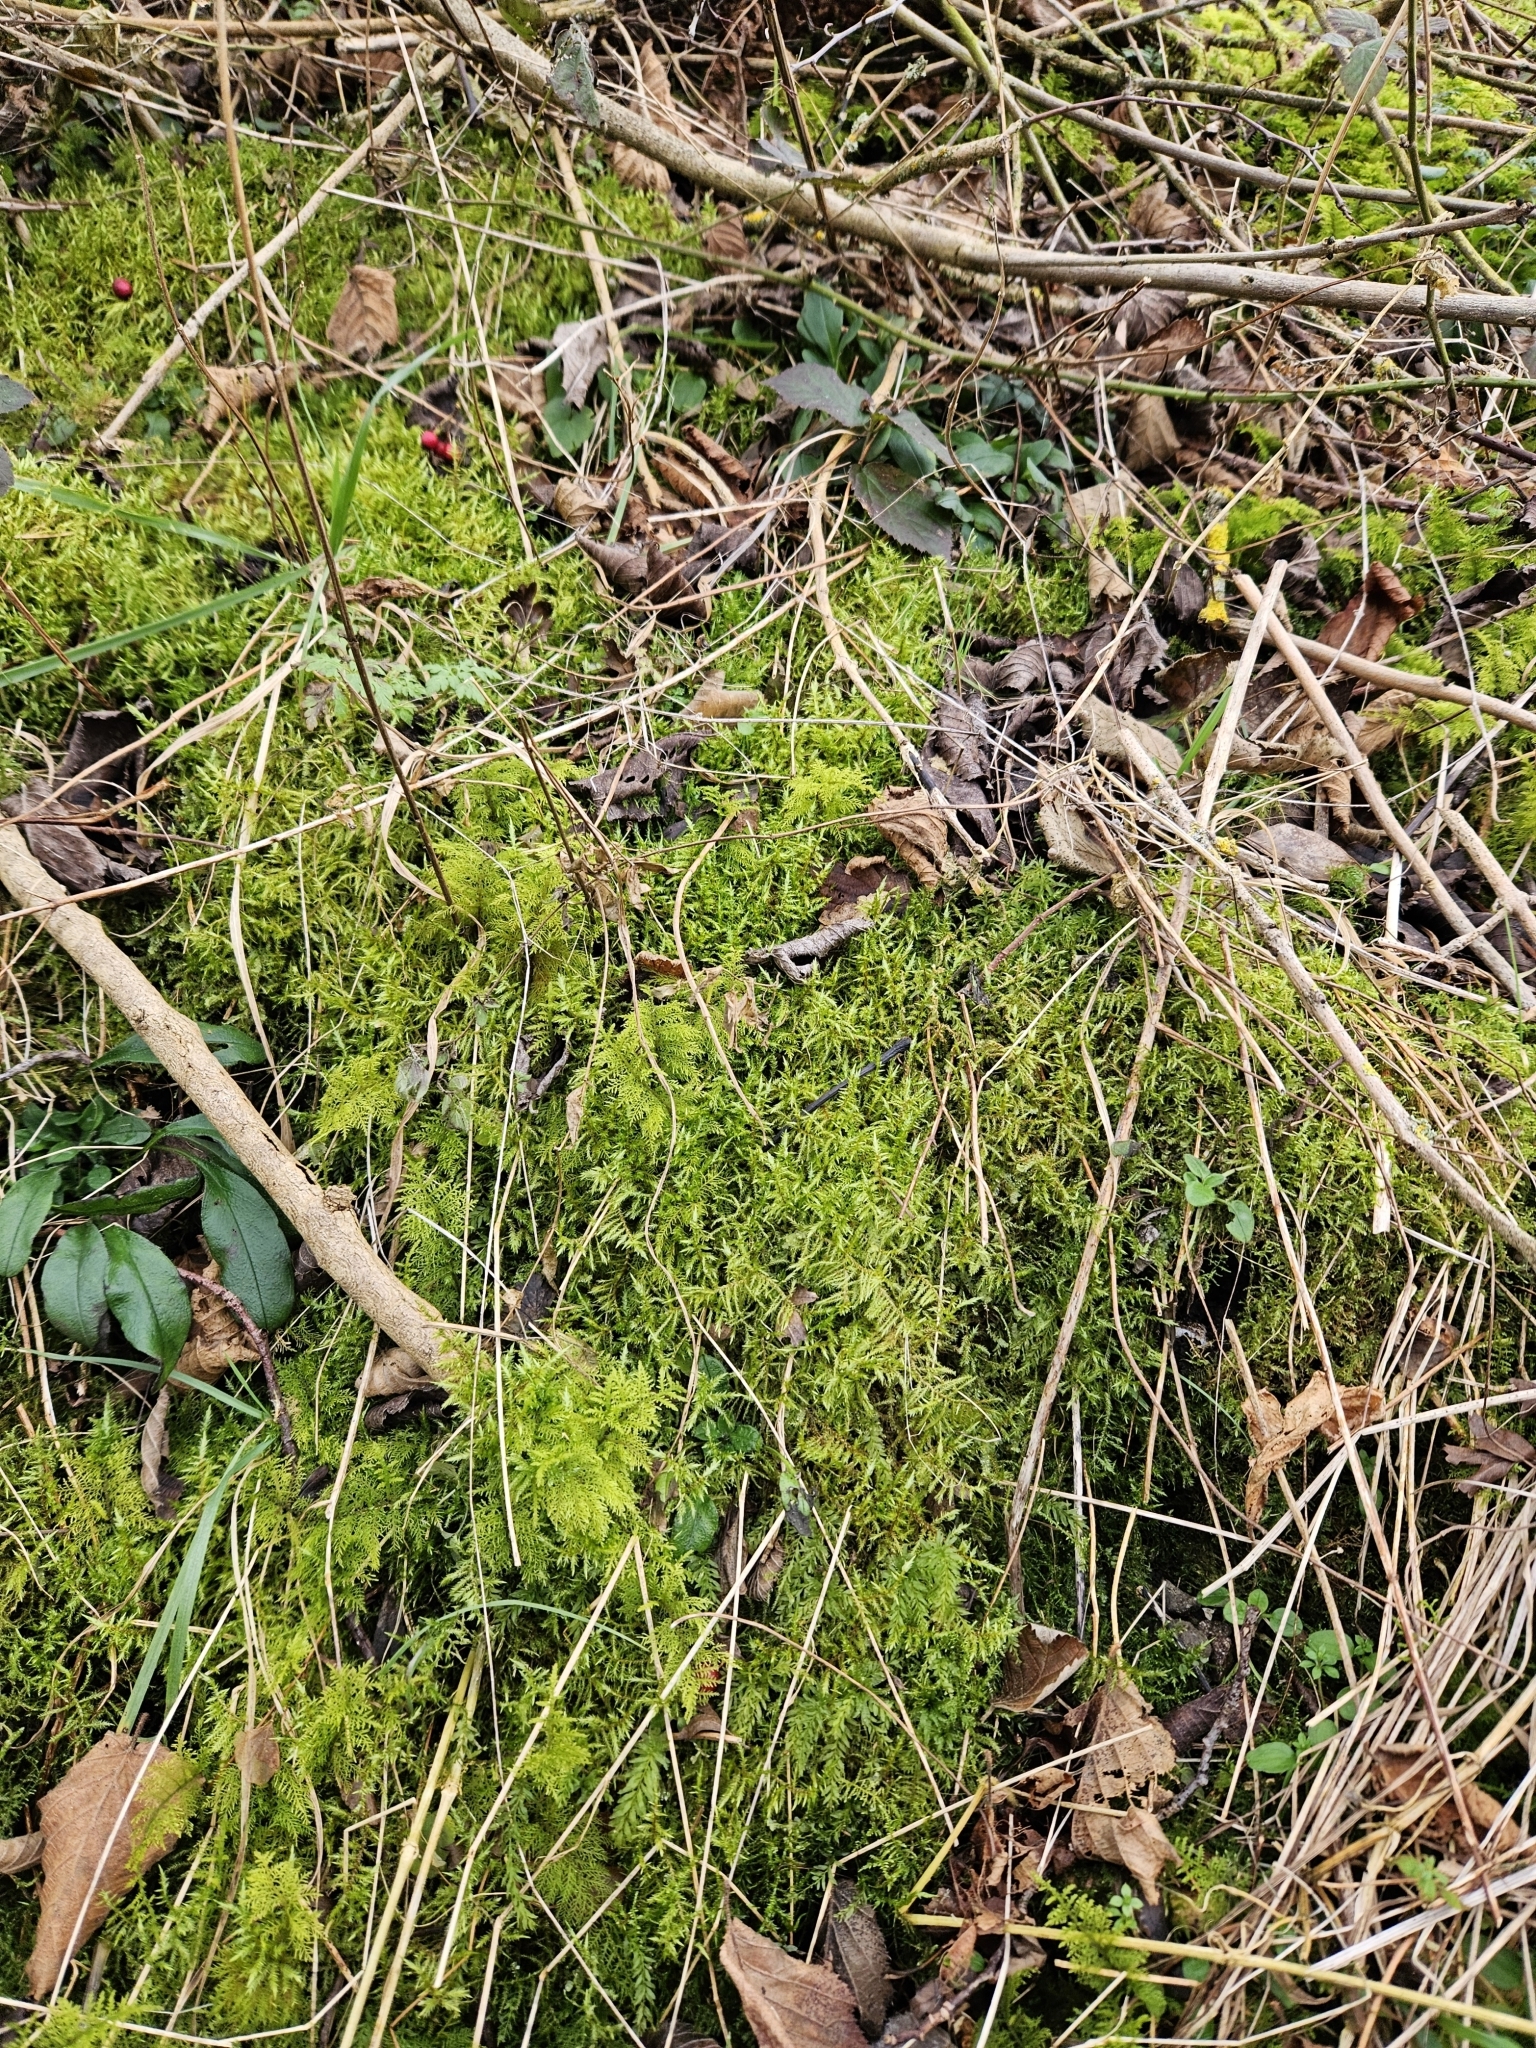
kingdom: Plantae
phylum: Marchantiophyta
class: Jungermanniopsida
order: Jungermanniales
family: Lophocoleaceae
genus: Lophocolea
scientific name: Lophocolea bidentata
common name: Bifid crestwort
